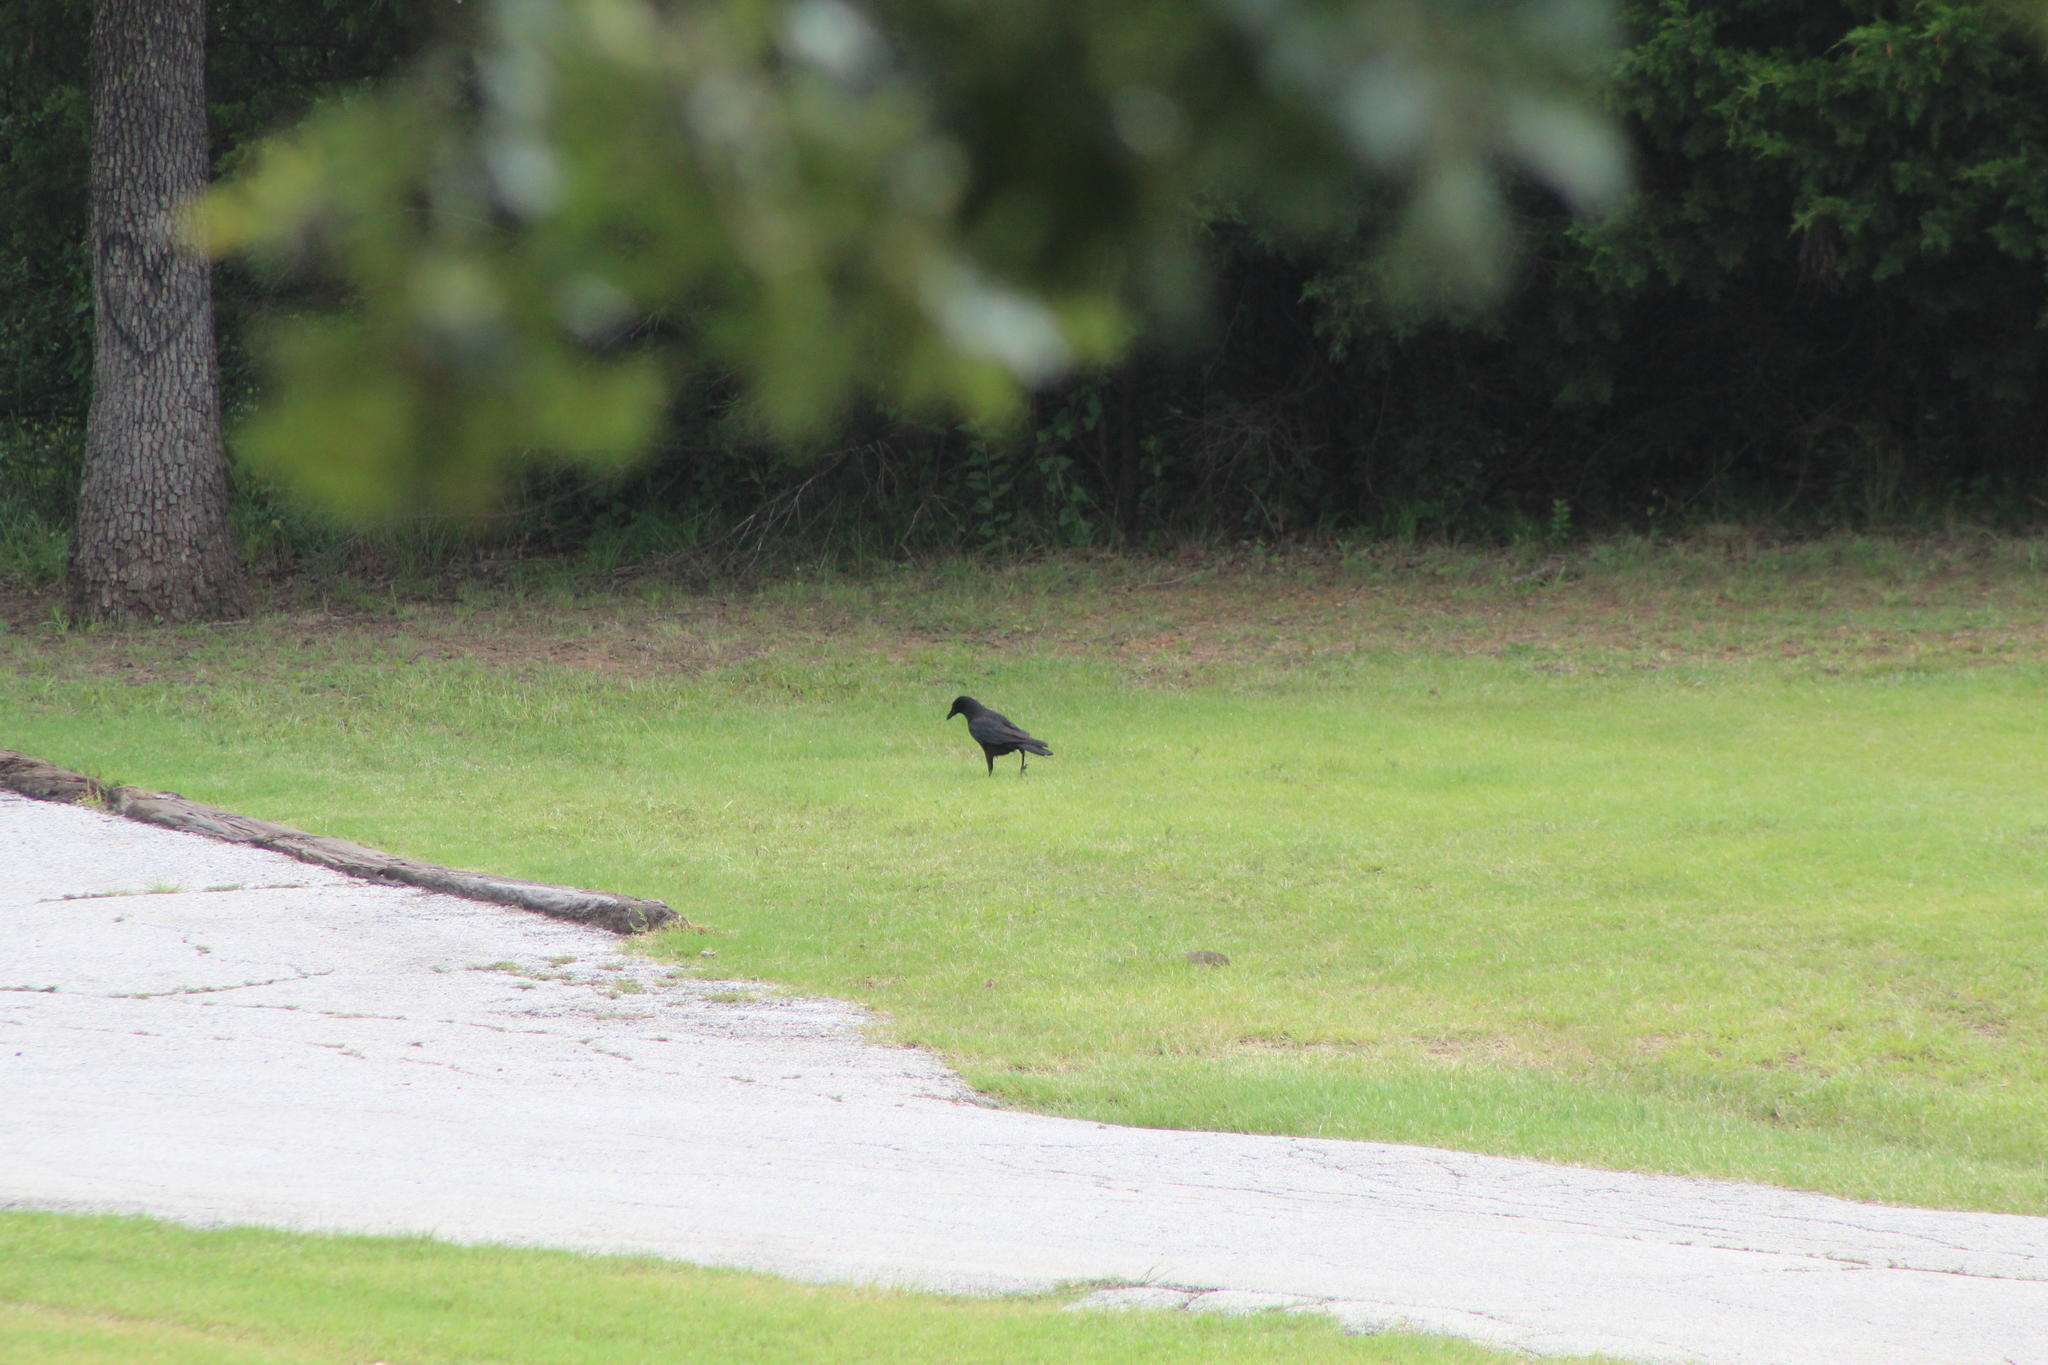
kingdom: Animalia
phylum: Chordata
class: Aves
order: Passeriformes
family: Corvidae
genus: Corvus
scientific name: Corvus brachyrhynchos
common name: American crow
